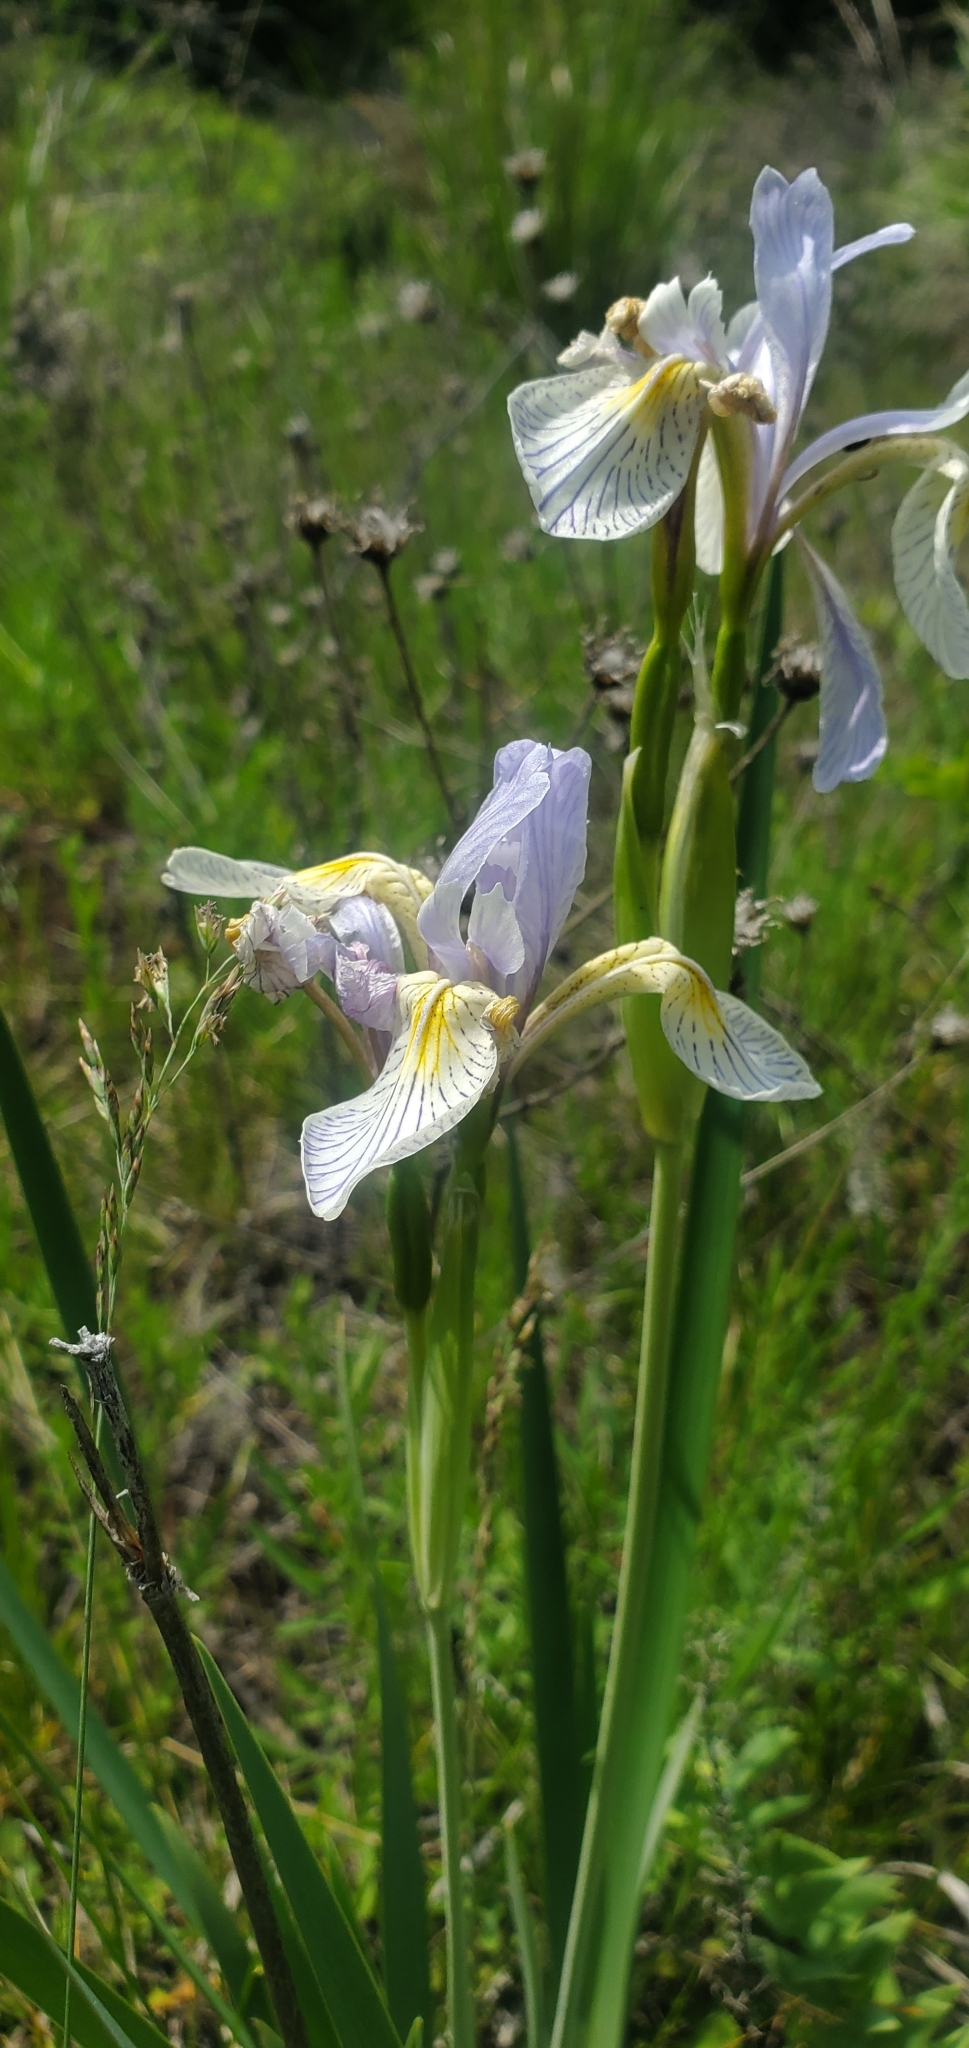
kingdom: Plantae
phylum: Tracheophyta
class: Liliopsida
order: Asparagales
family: Iridaceae
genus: Iris
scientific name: Iris missouriensis
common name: Rocky mountain iris
